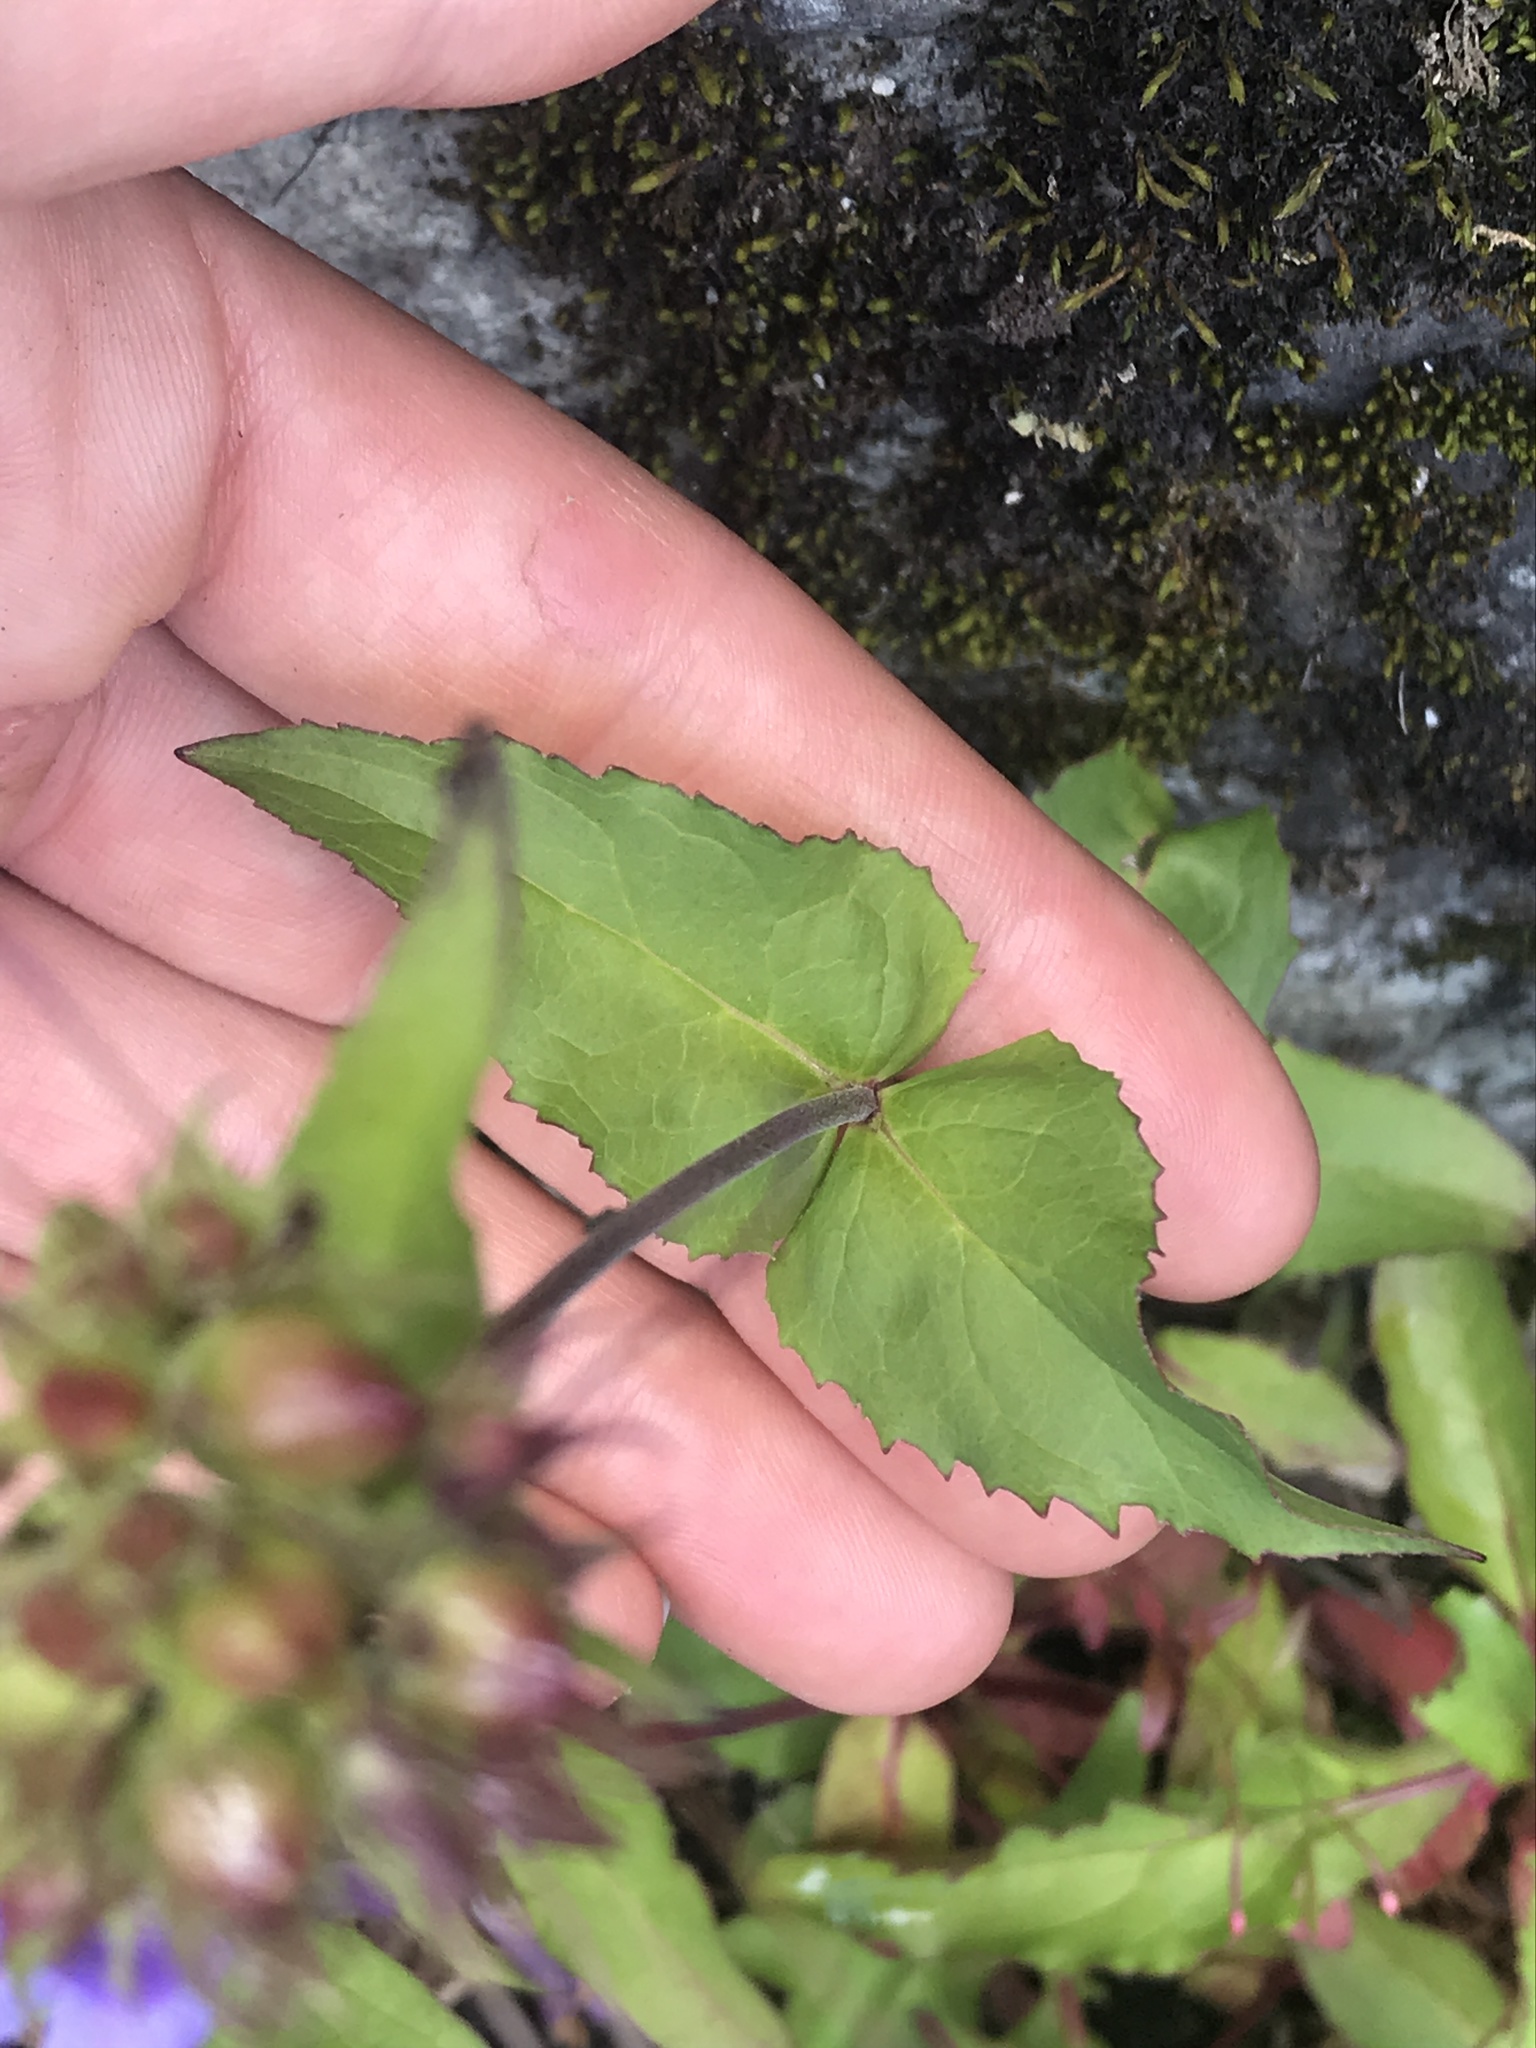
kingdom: Plantae
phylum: Tracheophyta
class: Magnoliopsida
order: Lamiales
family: Plantaginaceae
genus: Penstemon
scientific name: Penstemon serrulatus
